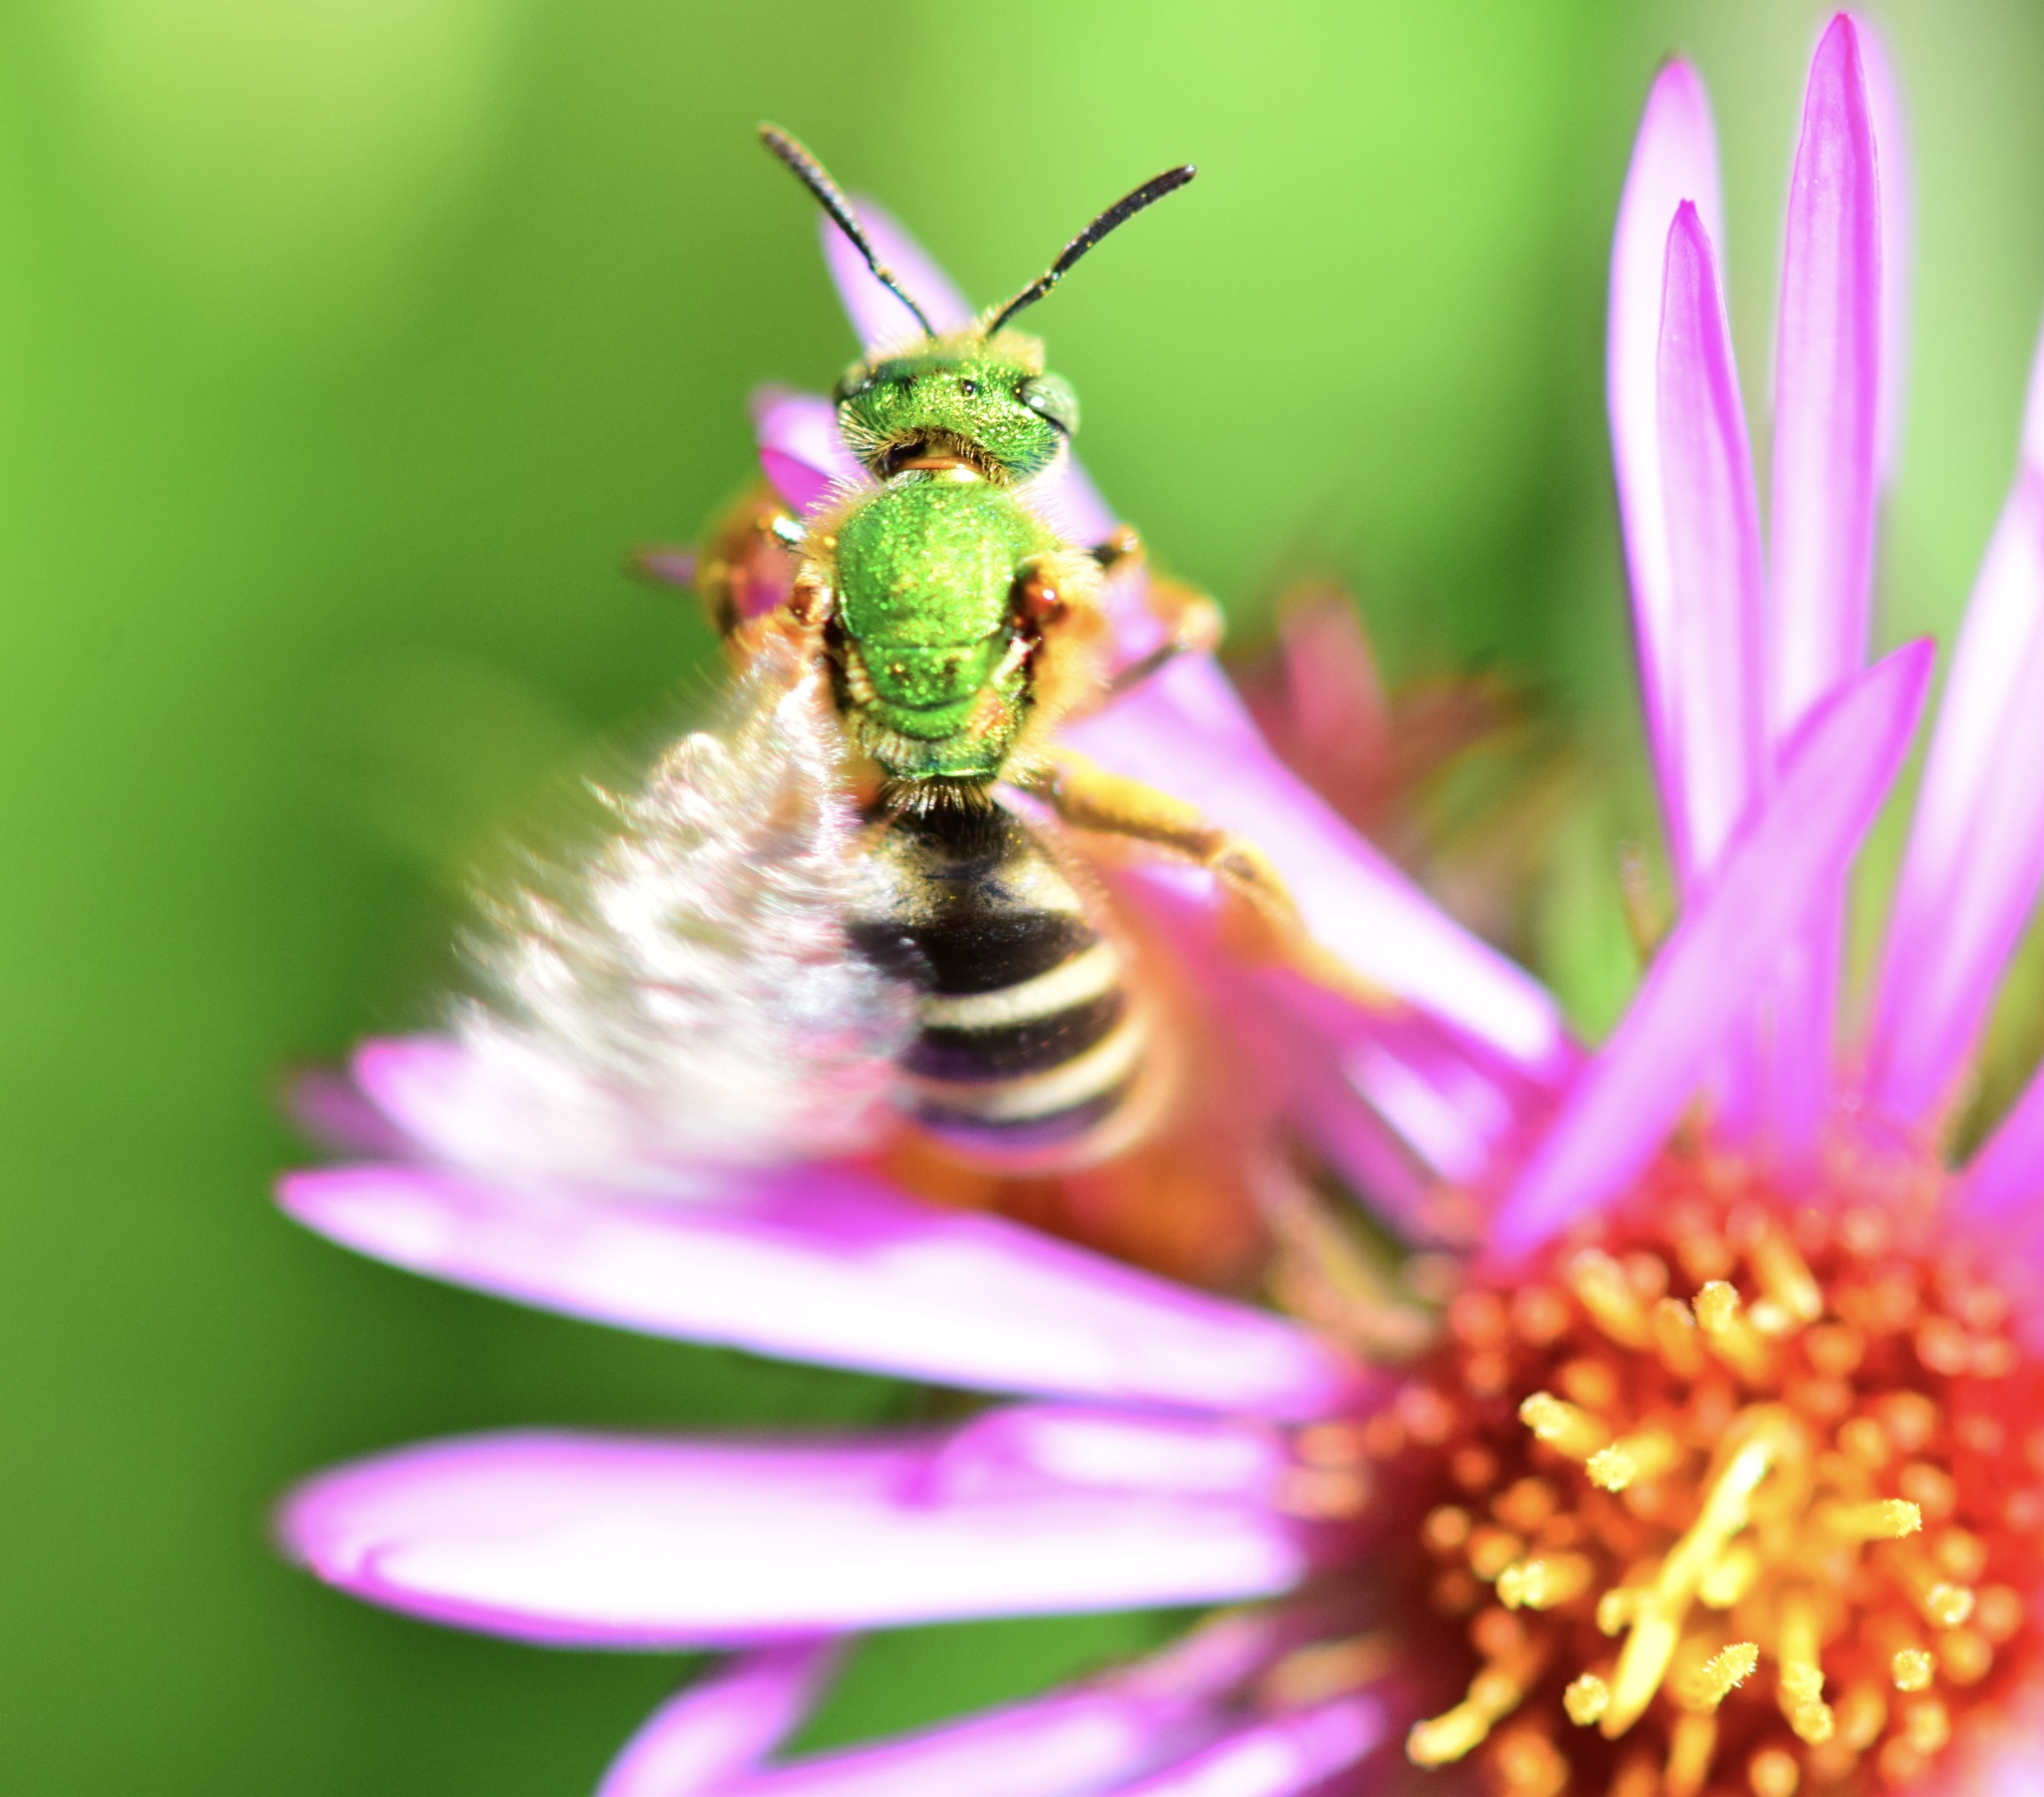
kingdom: Animalia
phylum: Arthropoda
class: Insecta
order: Hymenoptera
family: Halictidae
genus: Agapostemon
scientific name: Agapostemon virescens
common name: Bicolored striped sweat bee
